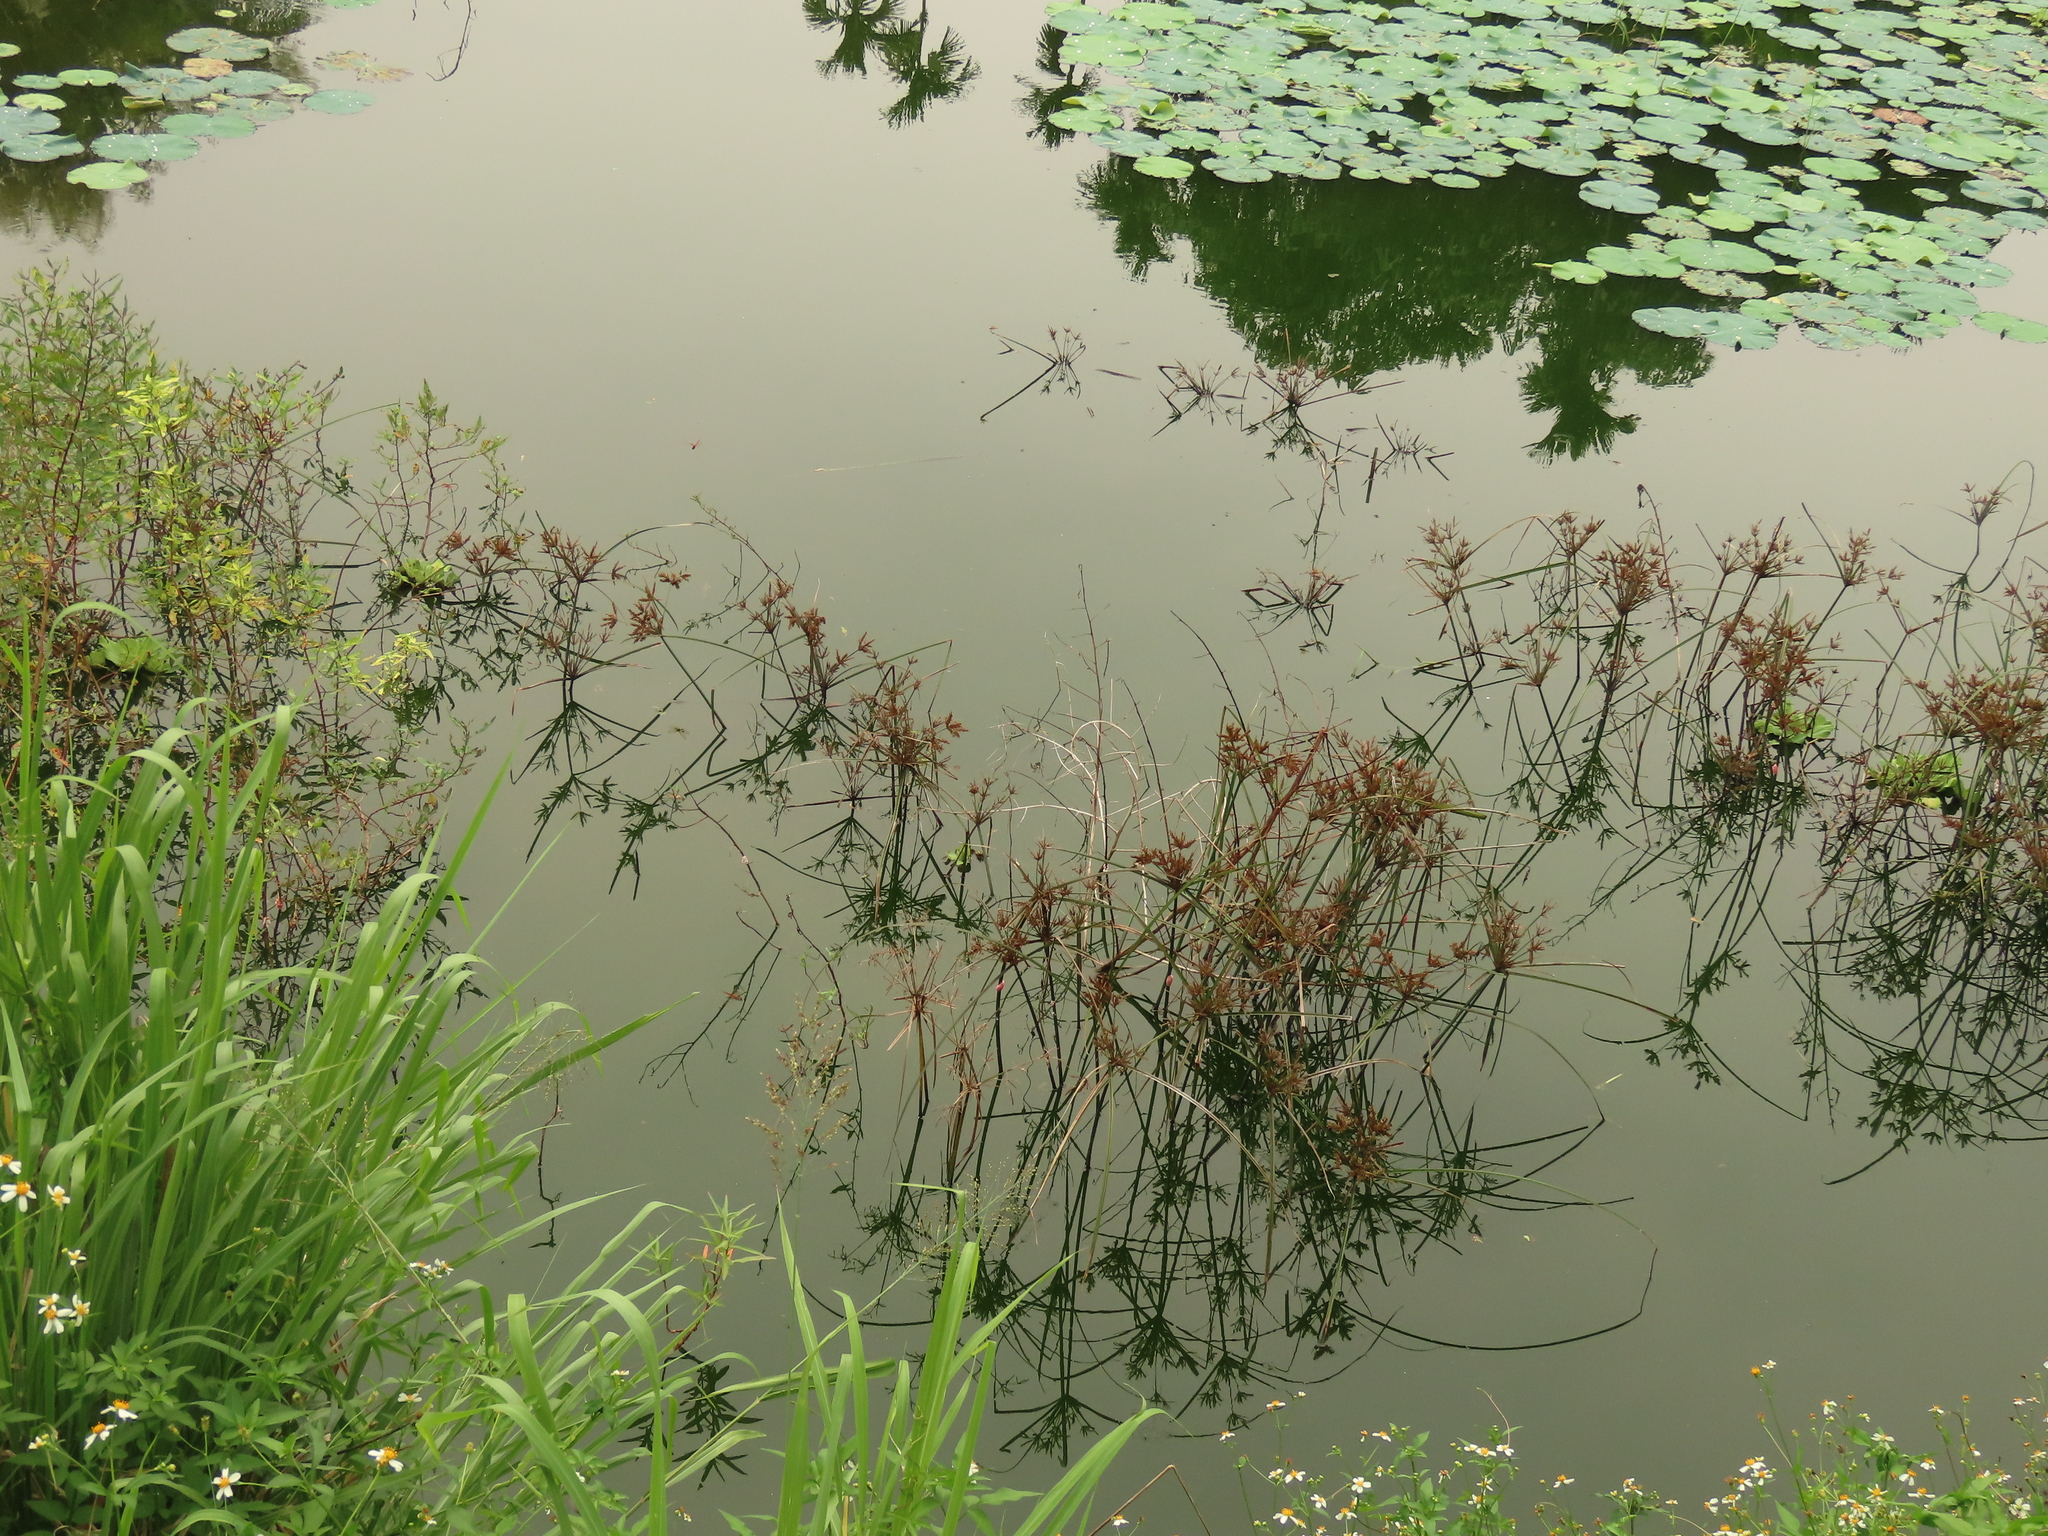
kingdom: Plantae
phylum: Tracheophyta
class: Liliopsida
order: Poales
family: Cyperaceae
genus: Cyperus
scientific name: Cyperus imbricatus
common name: Shingle flatsedge
